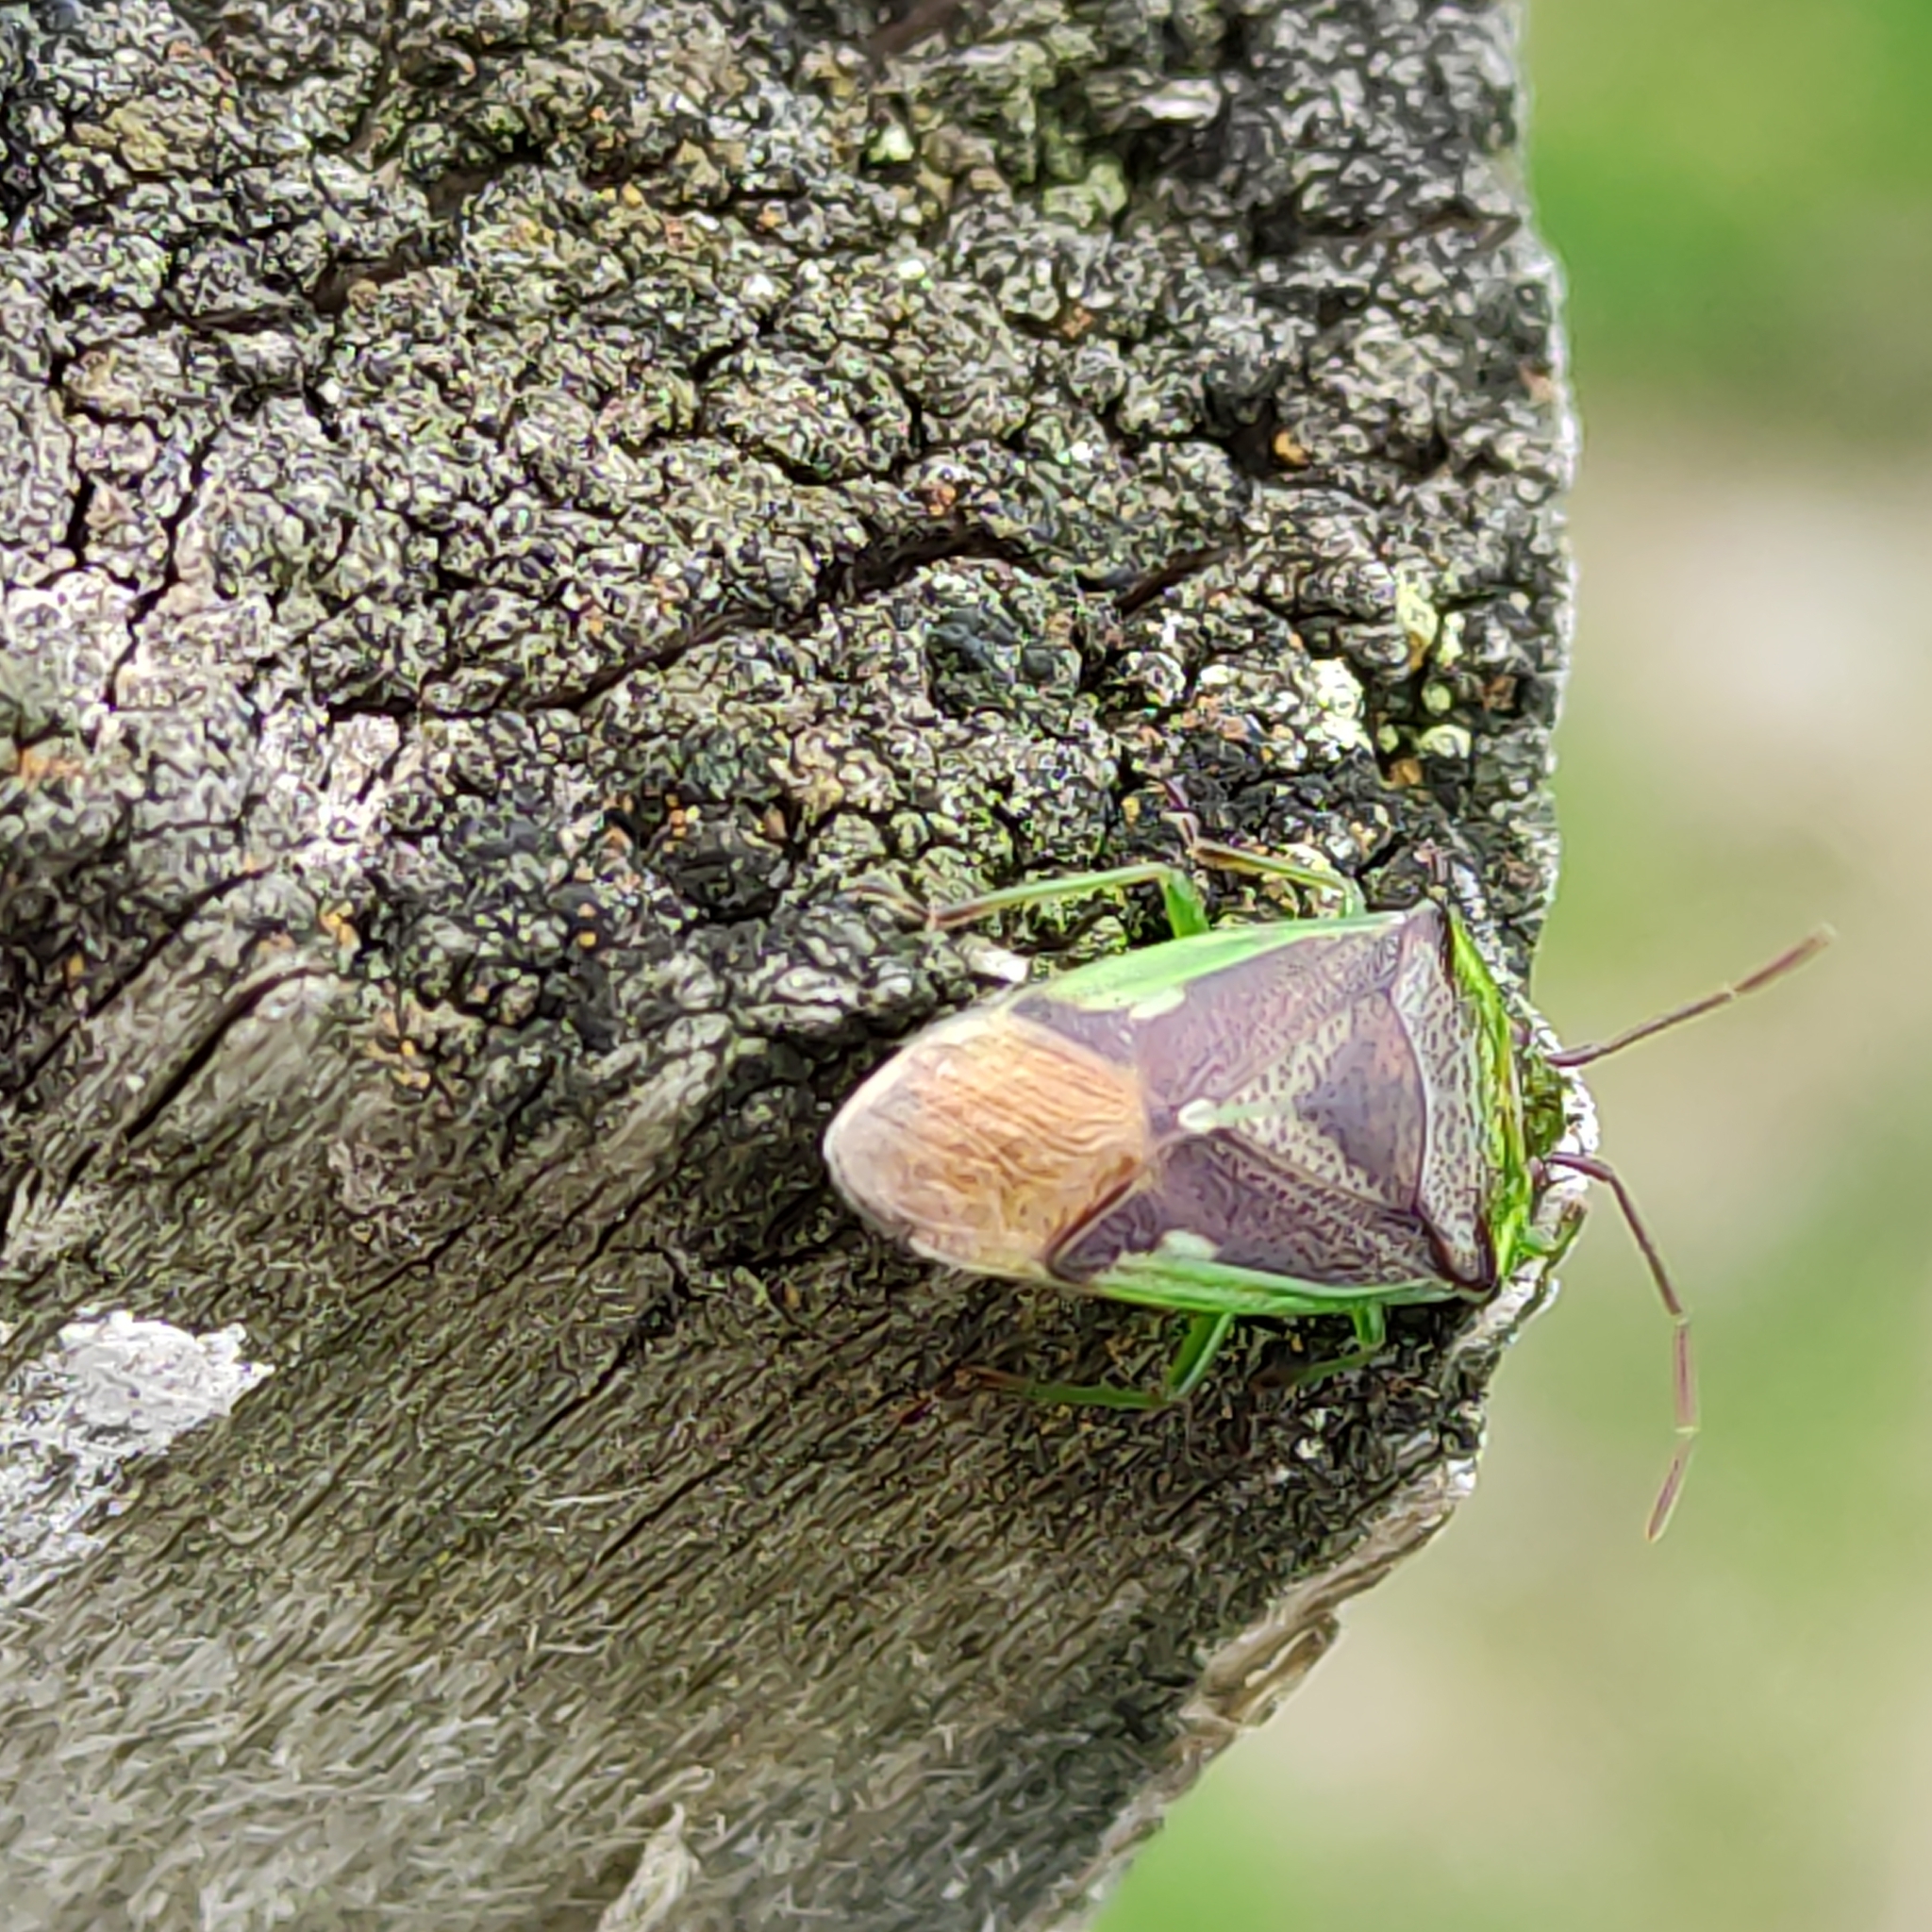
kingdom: Animalia
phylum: Arthropoda
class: Insecta
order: Hemiptera
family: Acanthosomatidae
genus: Oncacontias
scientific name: Oncacontias vittatus
